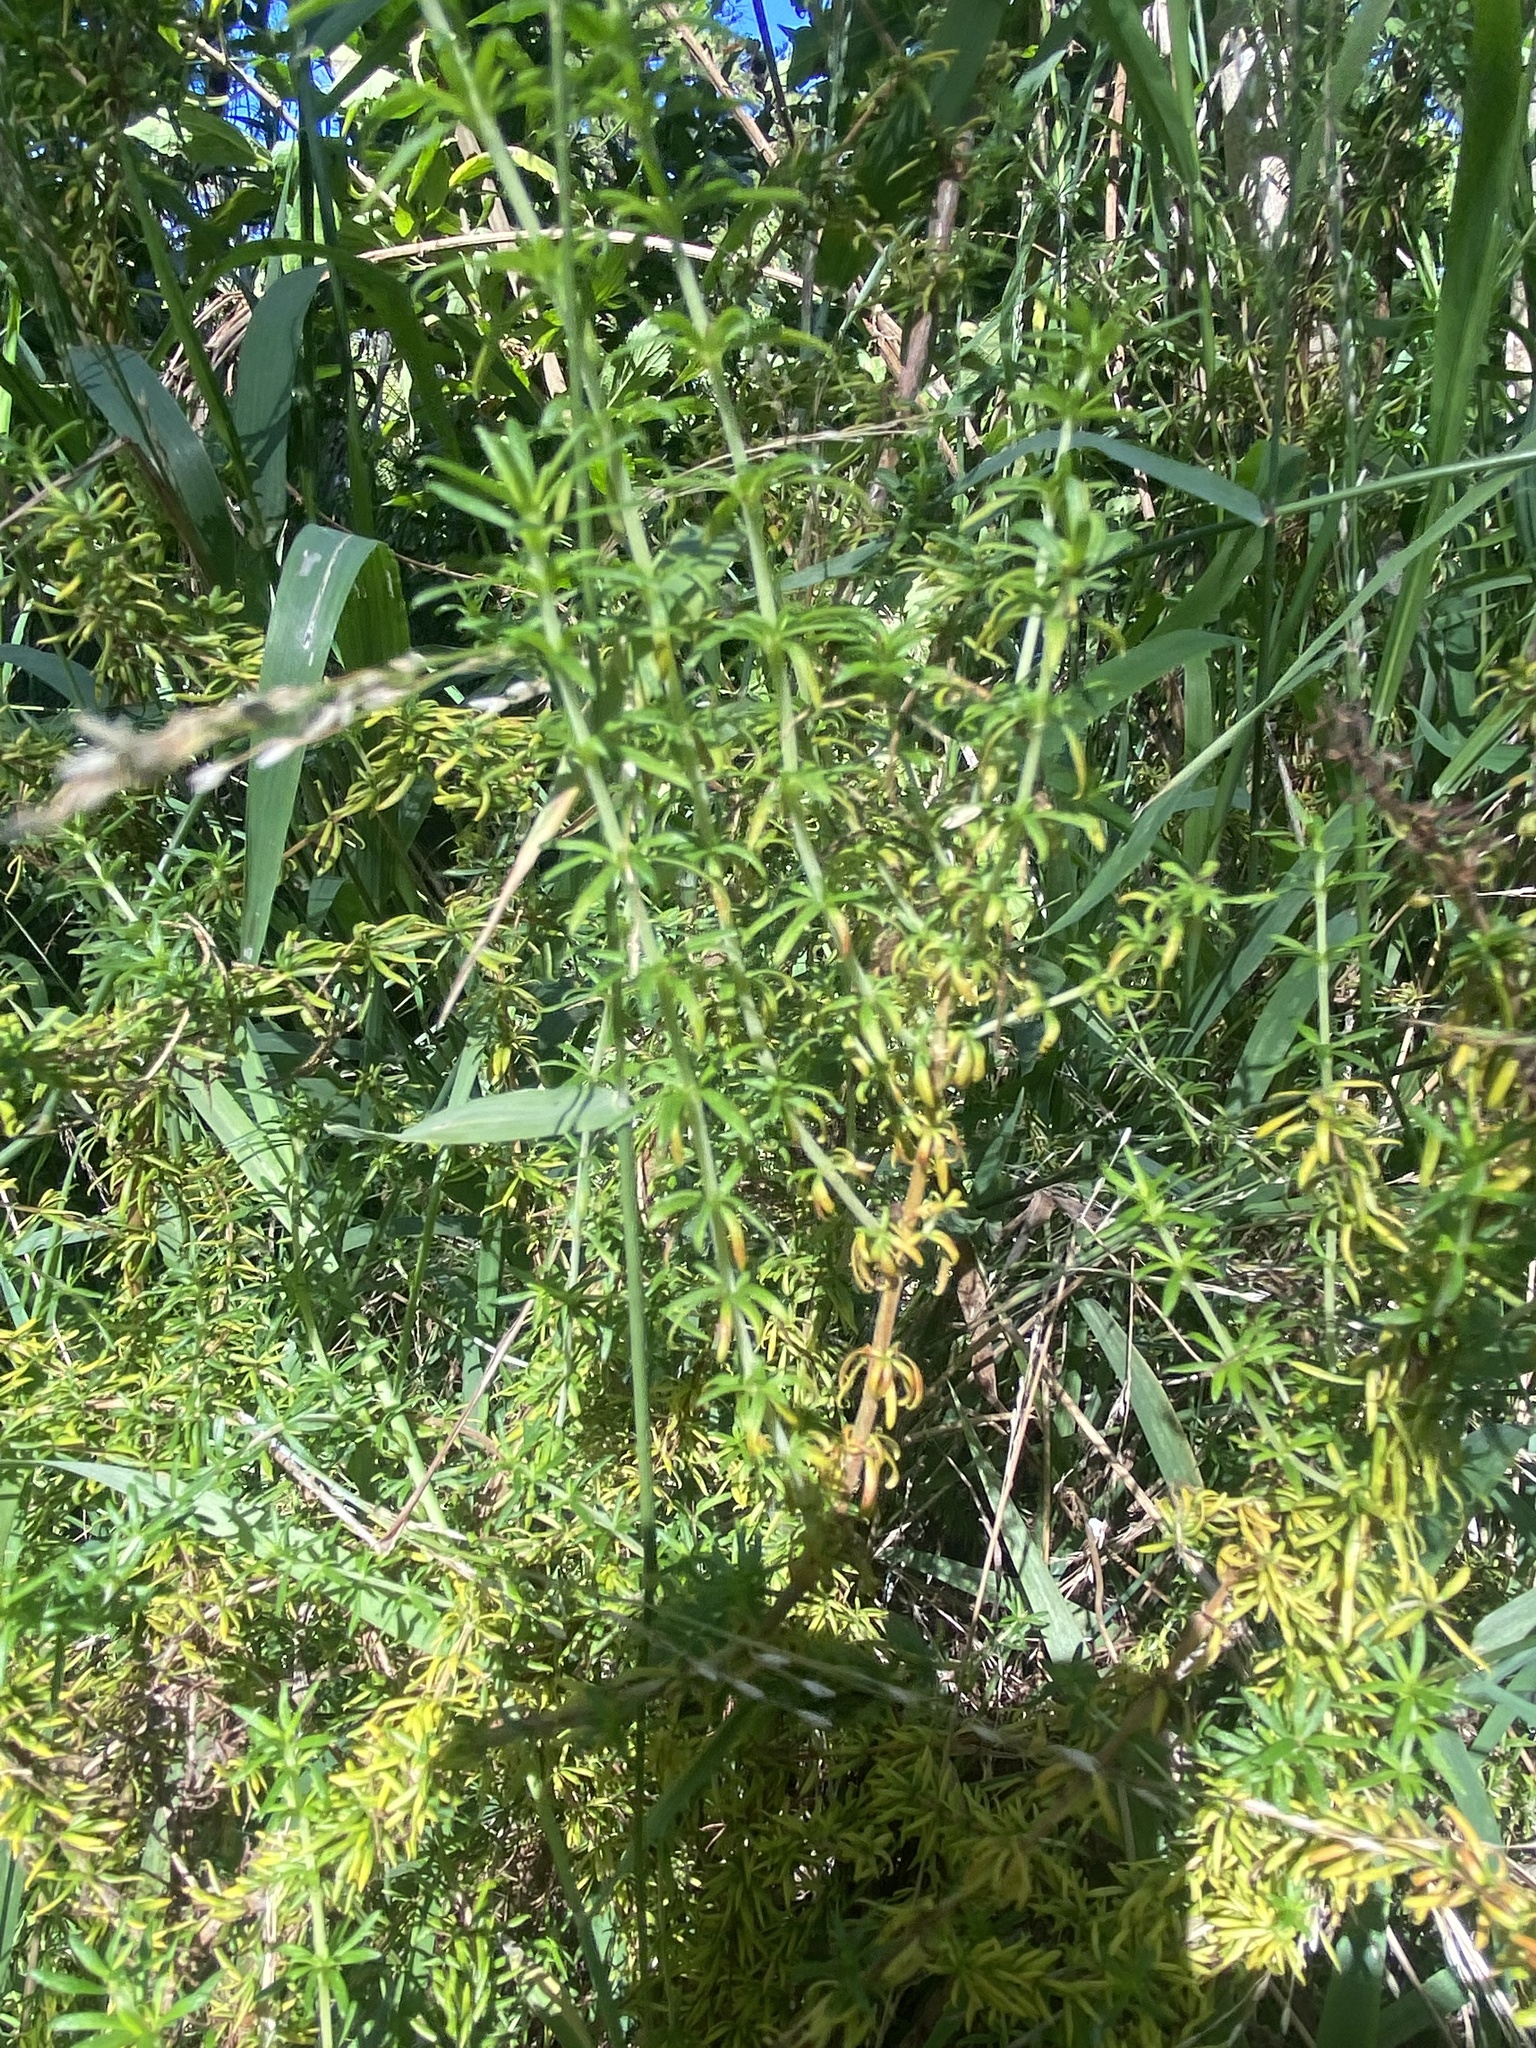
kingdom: Plantae
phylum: Tracheophyta
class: Magnoliopsida
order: Gentianales
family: Rubiaceae
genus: Galium
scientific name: Galium tomentosum
